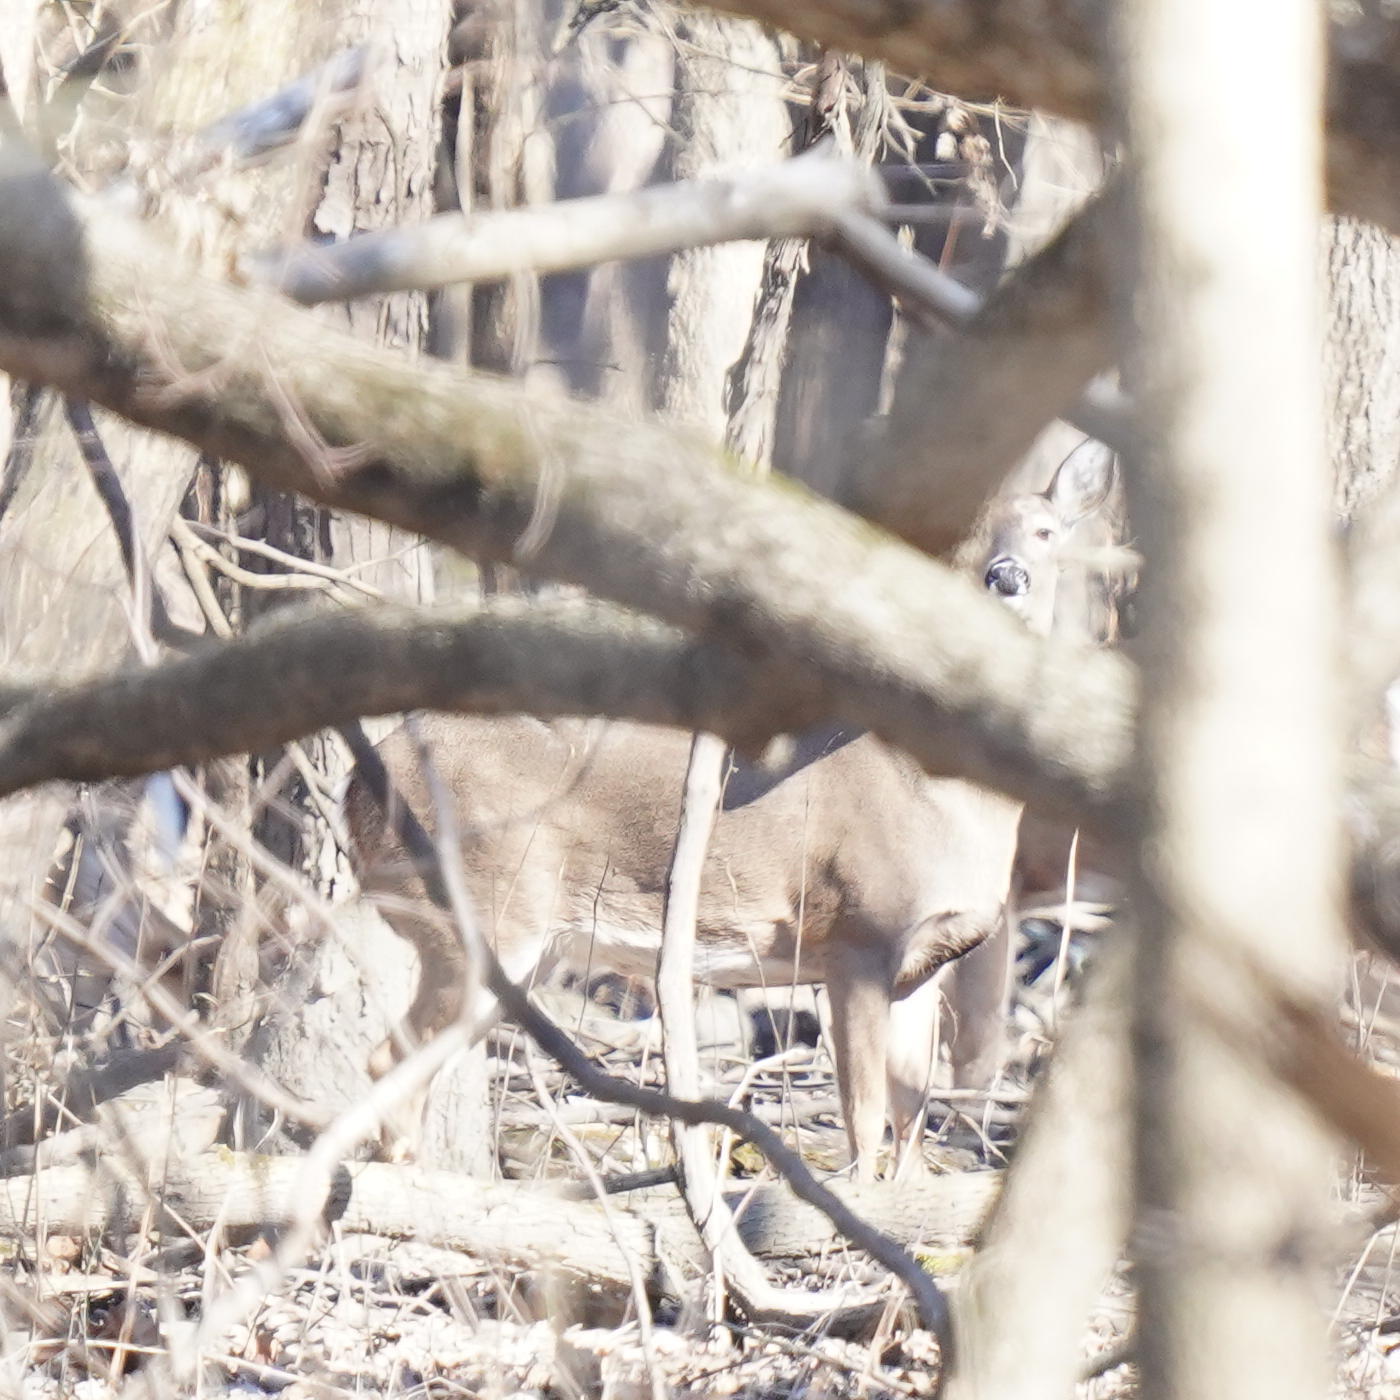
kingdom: Animalia
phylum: Chordata
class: Mammalia
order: Artiodactyla
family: Cervidae
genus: Odocoileus
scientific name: Odocoileus virginianus
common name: White-tailed deer
